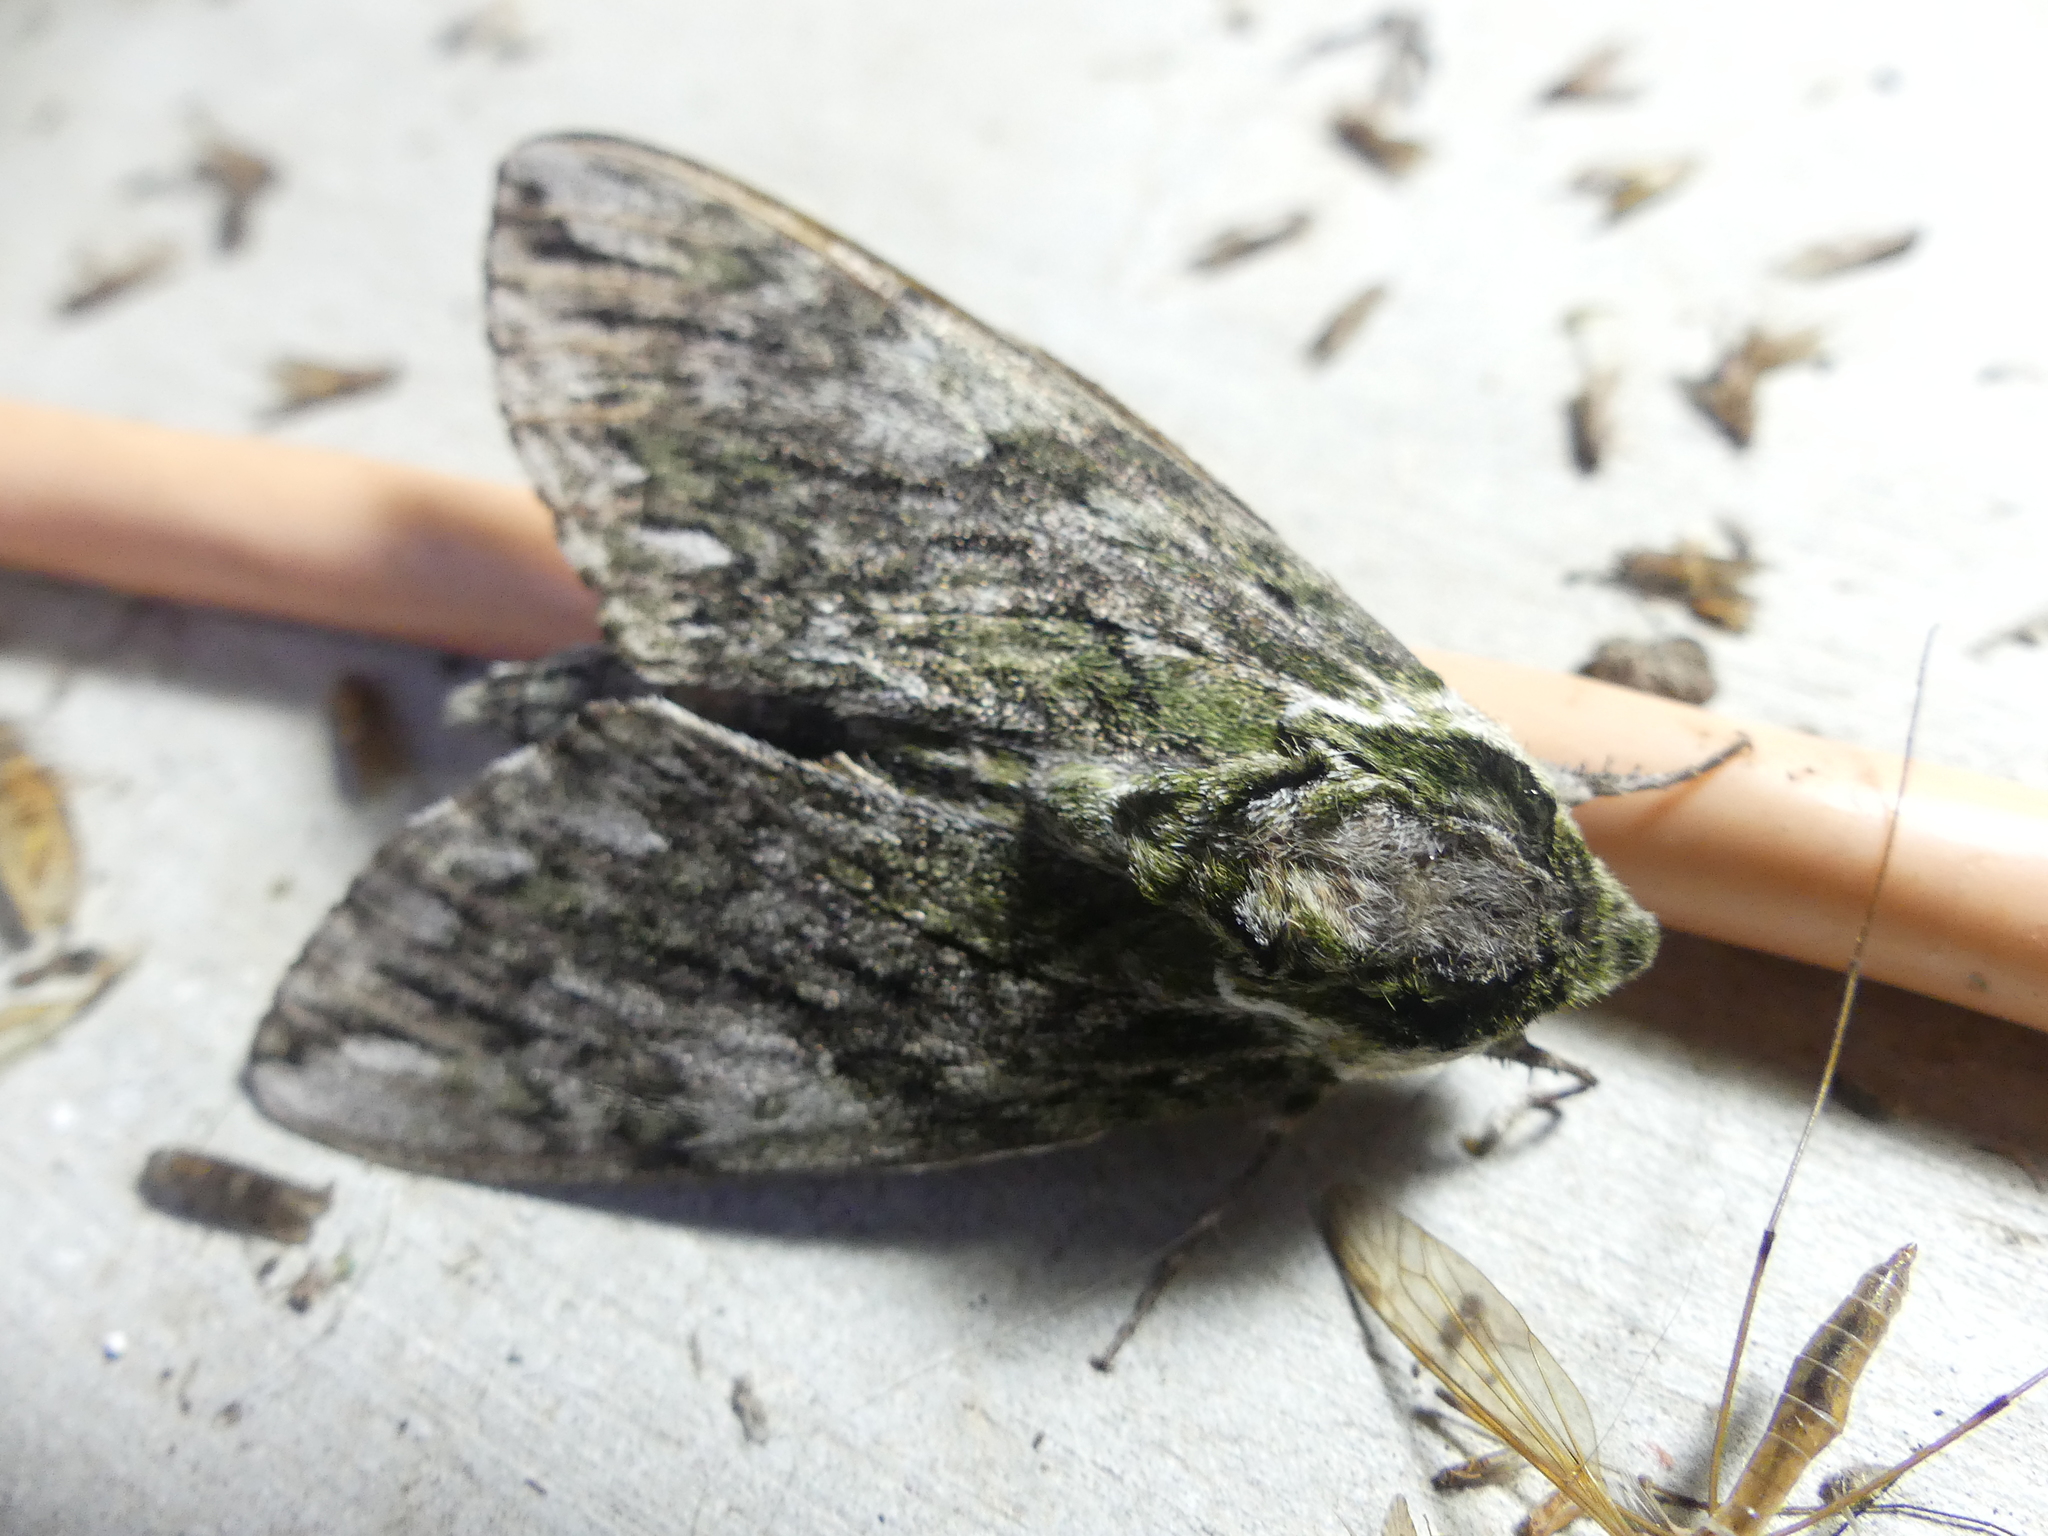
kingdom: Animalia
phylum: Arthropoda
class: Insecta
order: Lepidoptera
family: Sphingidae
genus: Ceratomia
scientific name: Ceratomia hageni
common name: Hagen's sphinx
